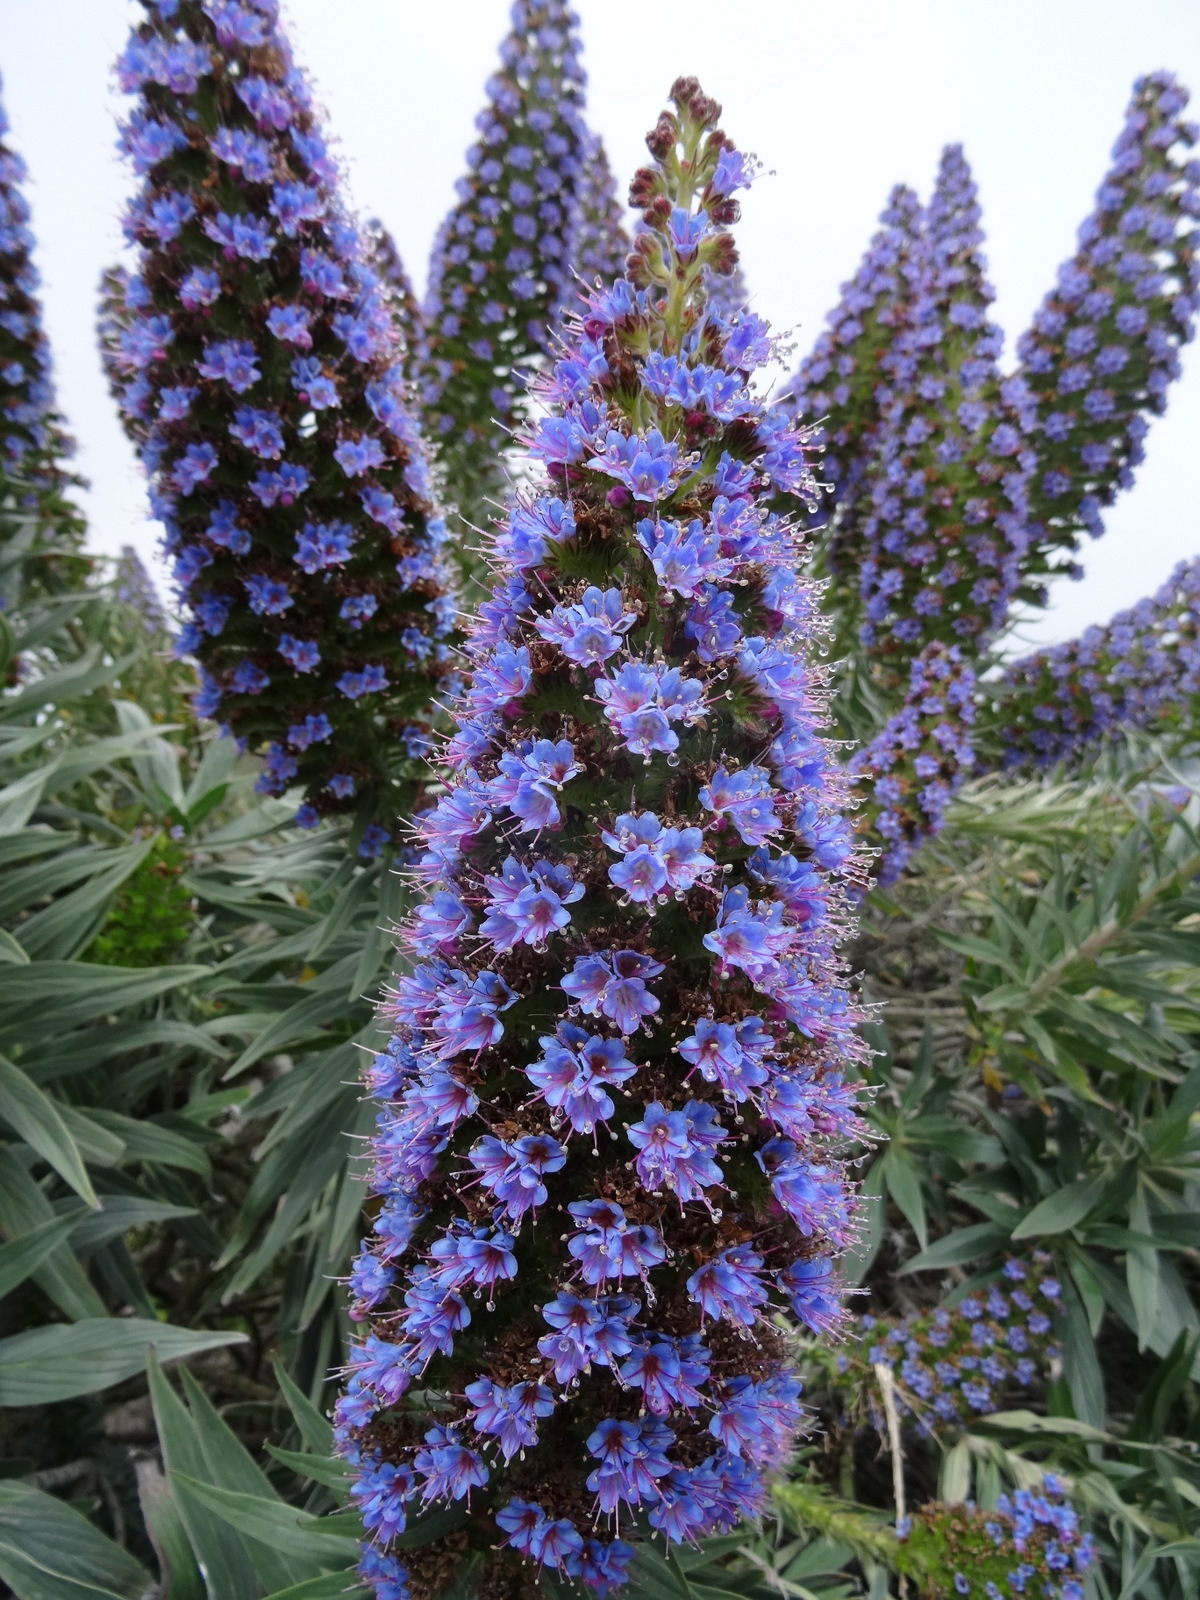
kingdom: Plantae
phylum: Tracheophyta
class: Magnoliopsida
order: Boraginales
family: Boraginaceae
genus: Echium
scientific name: Echium candicans
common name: Pride of madeira
